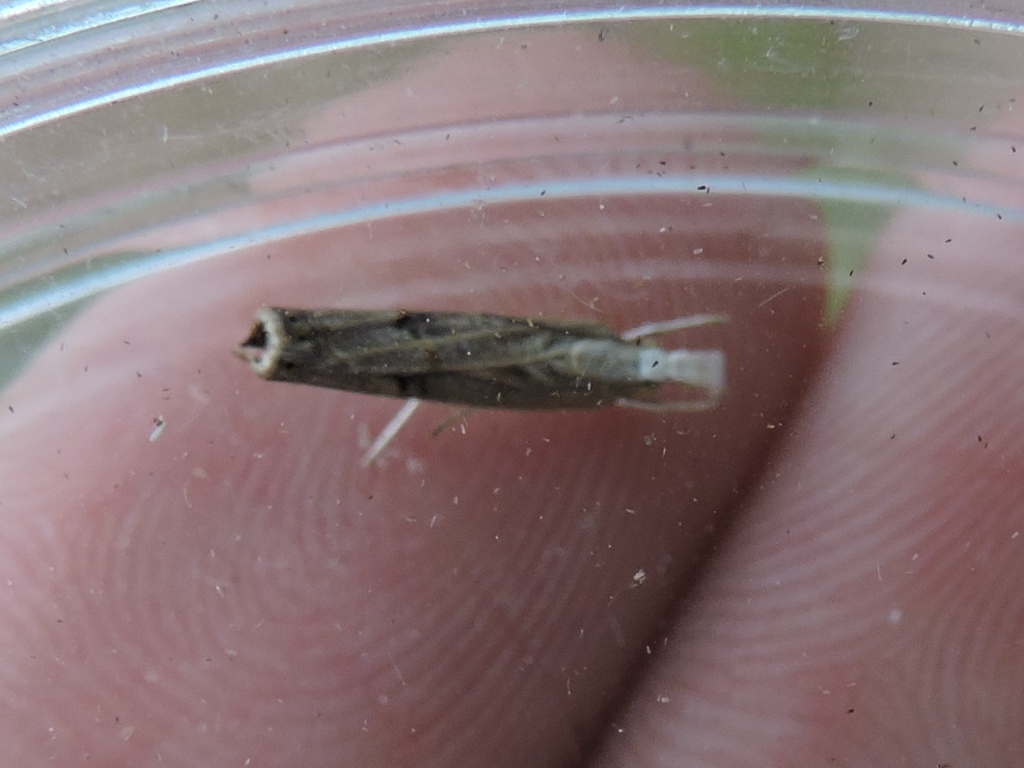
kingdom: Animalia
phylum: Arthropoda
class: Insecta
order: Lepidoptera
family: Crambidae
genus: Parapediasia
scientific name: Parapediasia teterellus
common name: Bluegrass webworm moth
